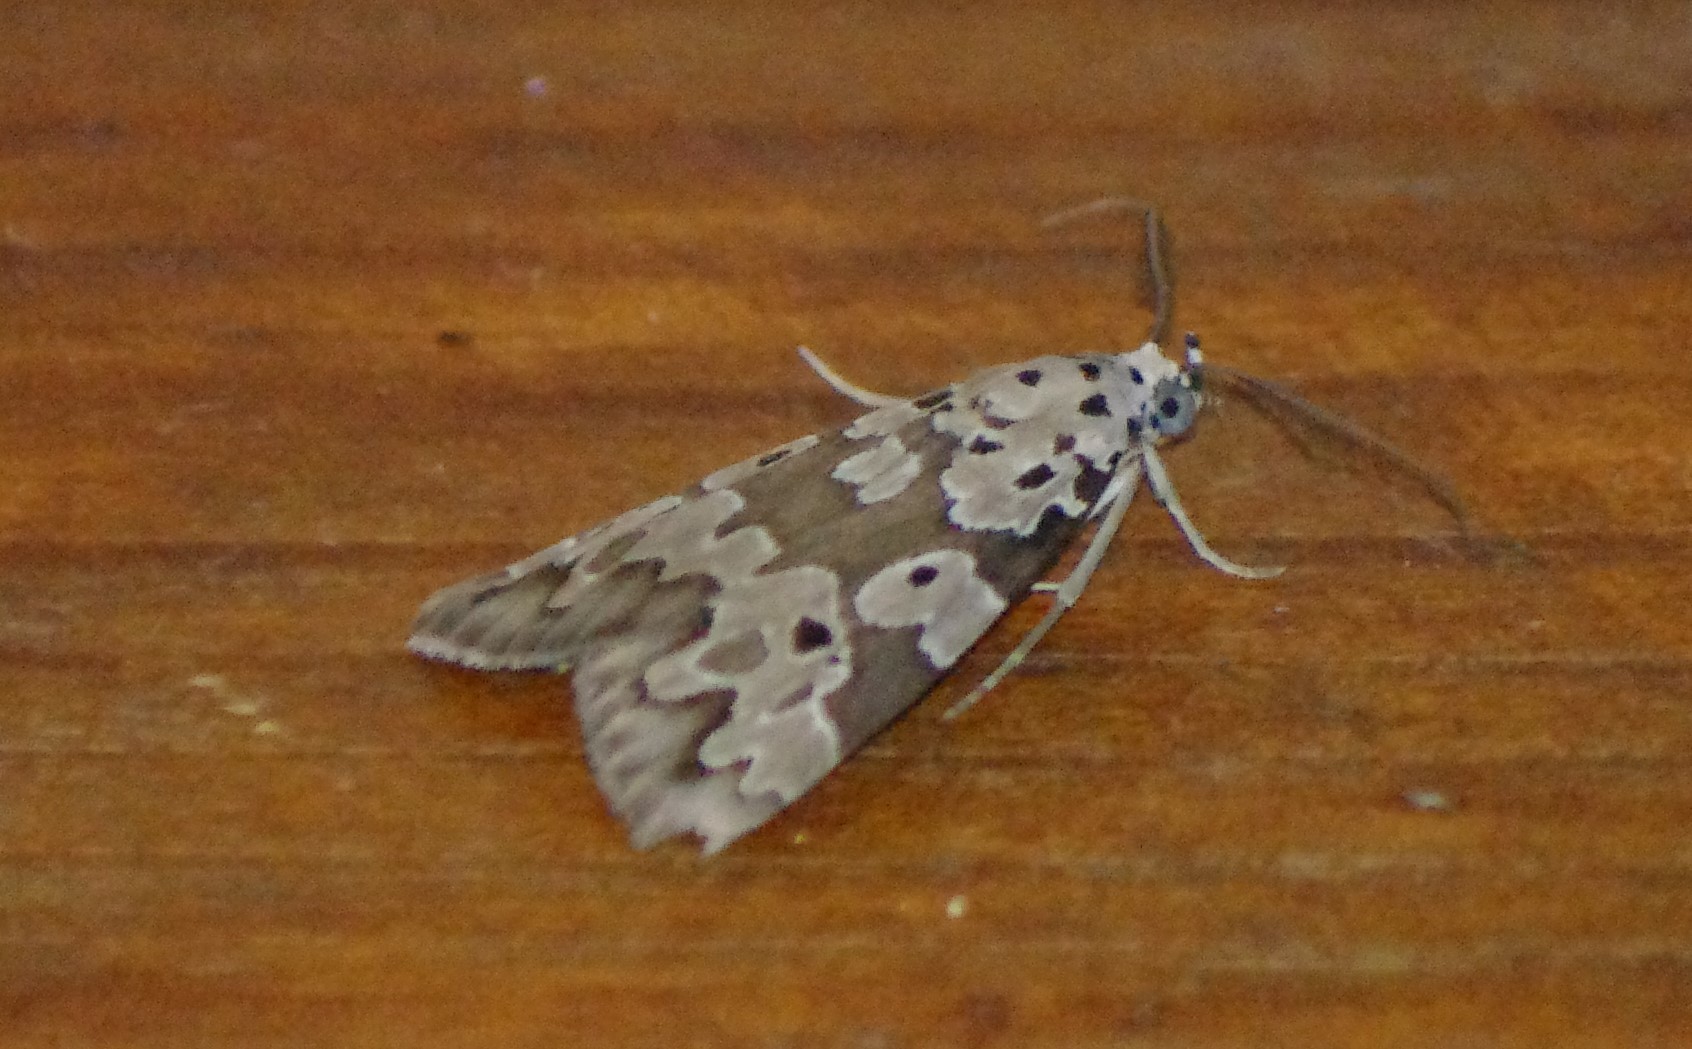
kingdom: Animalia
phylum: Arthropoda
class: Insecta
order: Lepidoptera
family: Erebidae
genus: Digama
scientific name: Digama Sommeria culta
